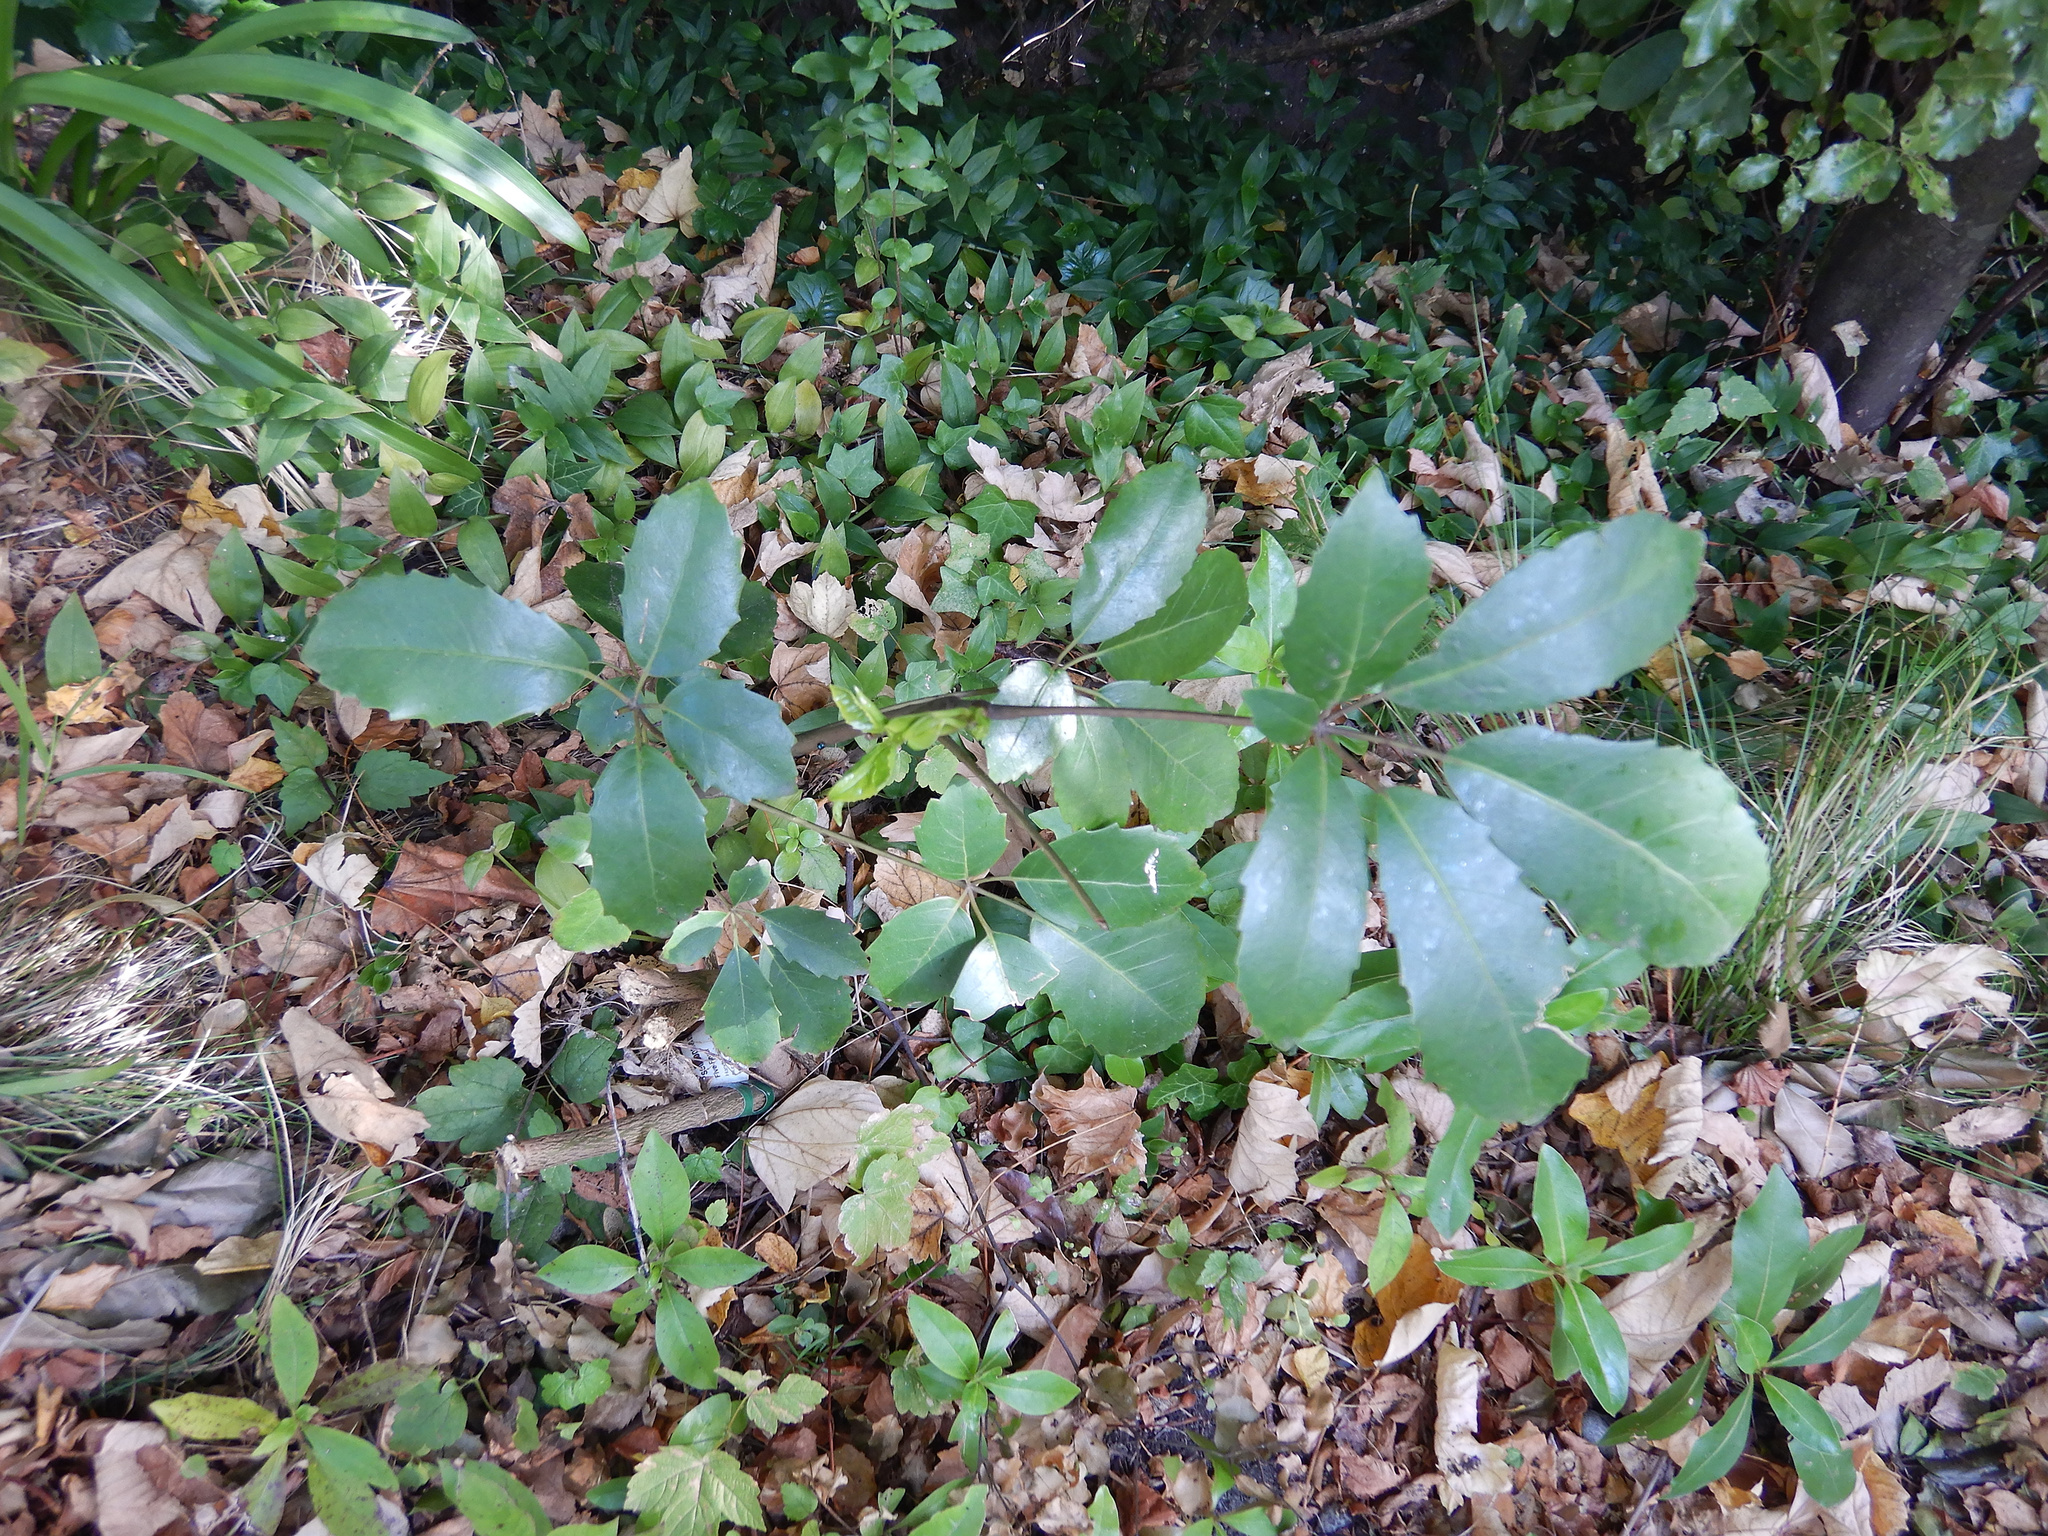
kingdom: Plantae
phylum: Tracheophyta
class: Magnoliopsida
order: Apiales
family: Araliaceae
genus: Neopanax
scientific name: Neopanax arboreus
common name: Five-fingers
